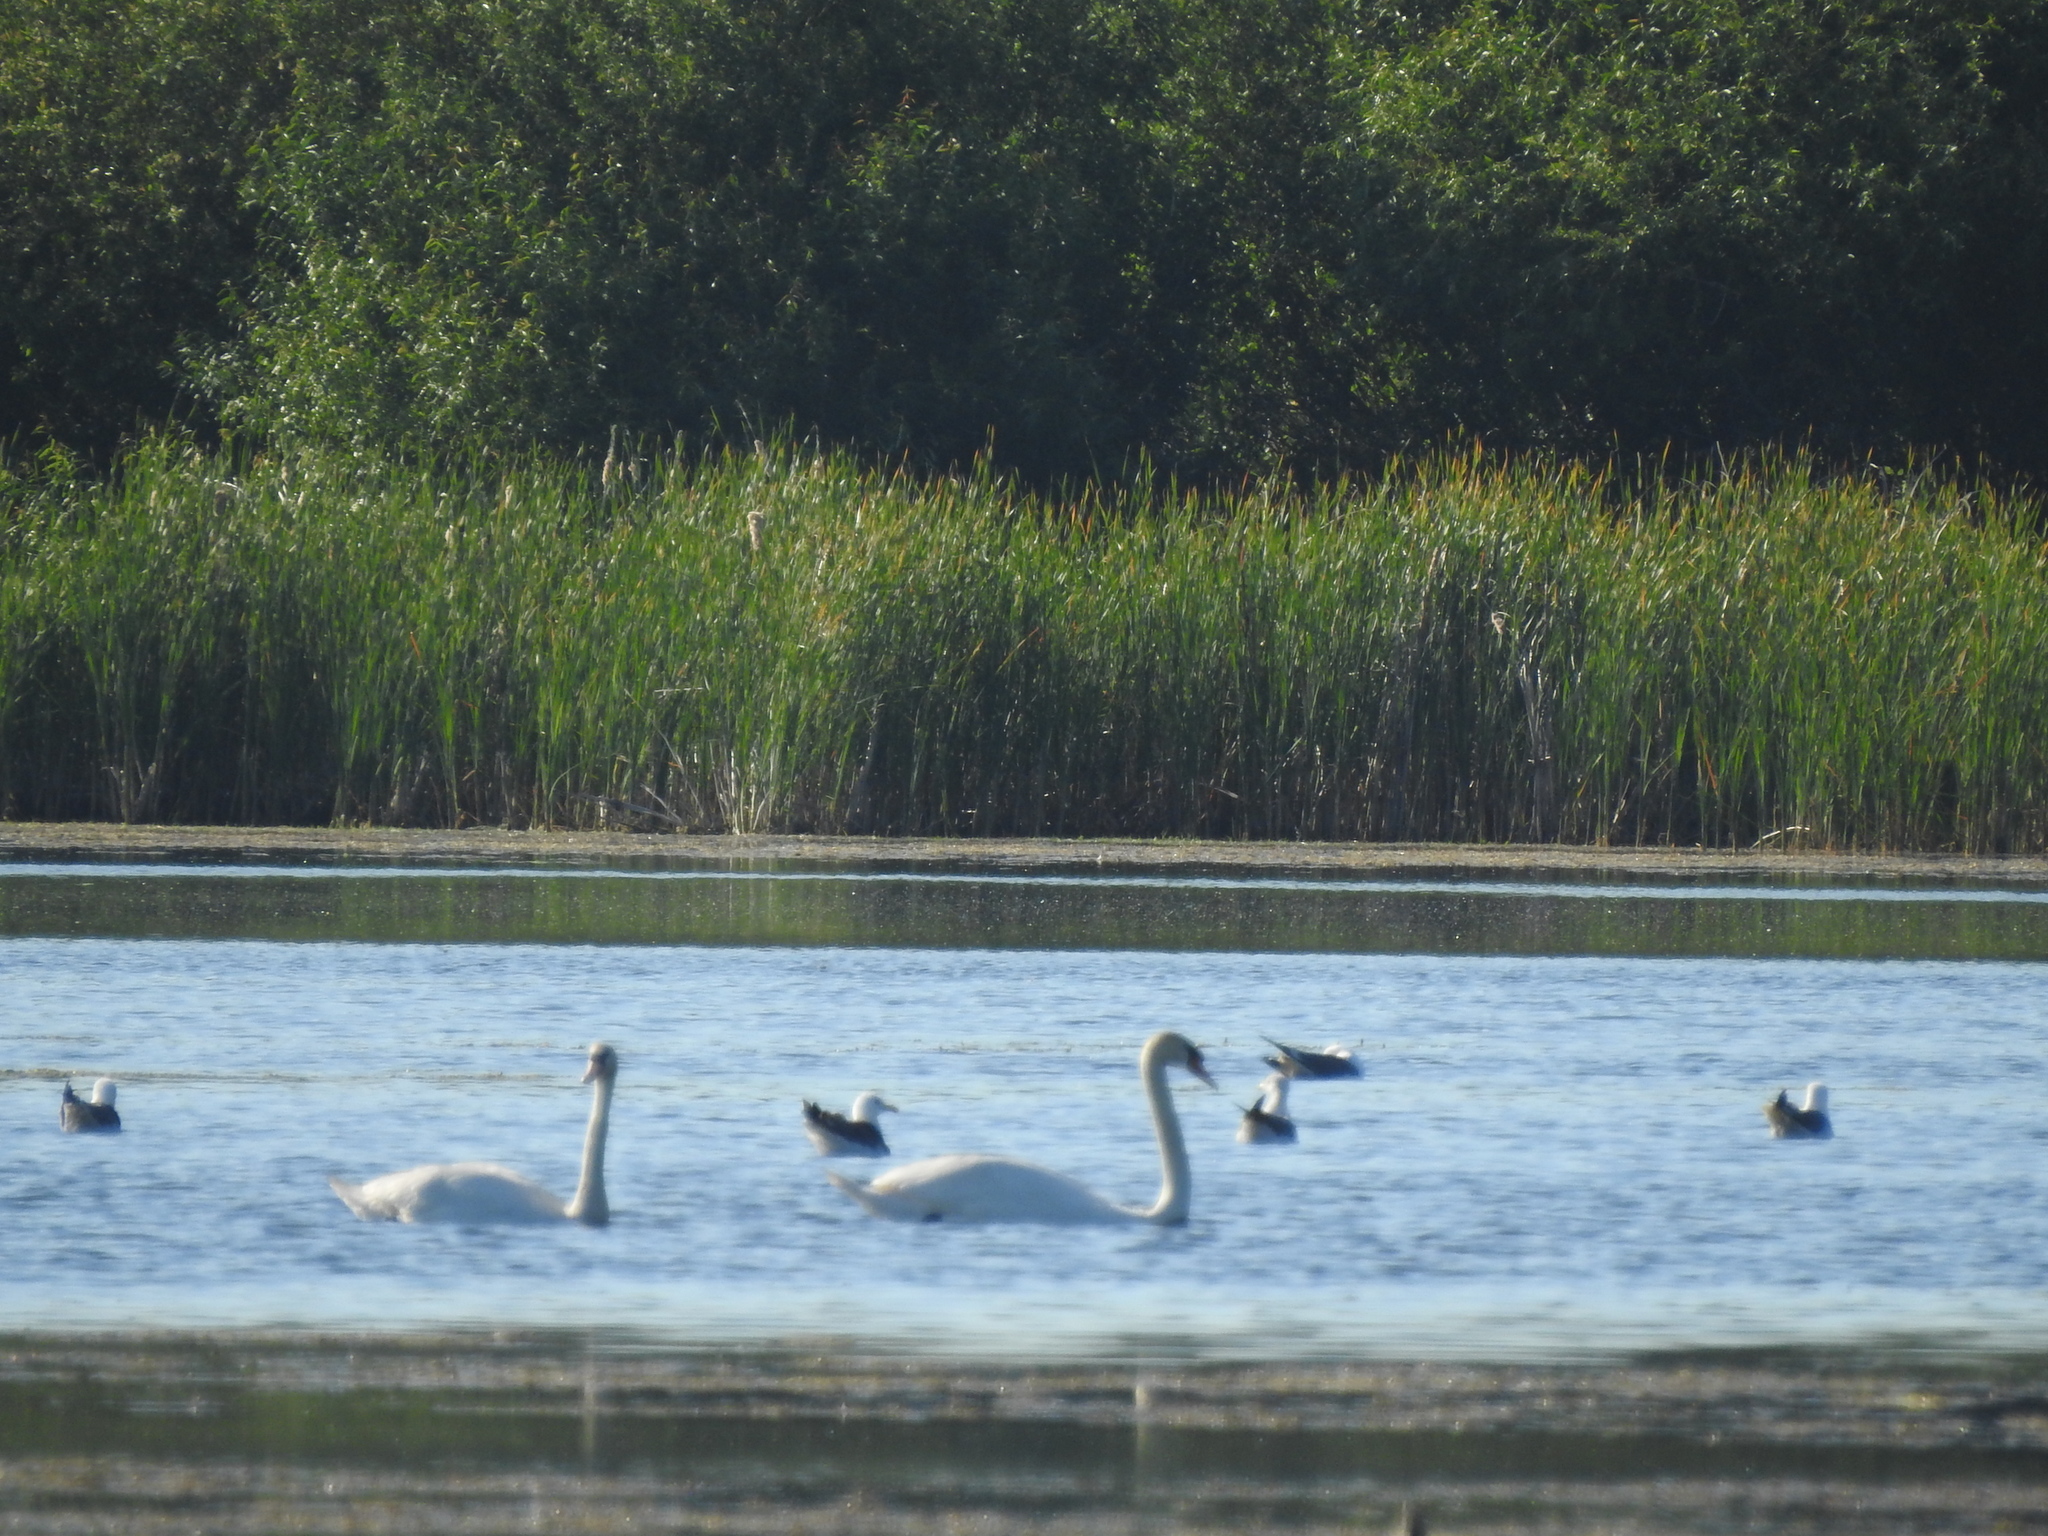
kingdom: Animalia
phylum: Chordata
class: Aves
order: Anseriformes
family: Anatidae
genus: Cygnus
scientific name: Cygnus cygnus
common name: Whooper swan
